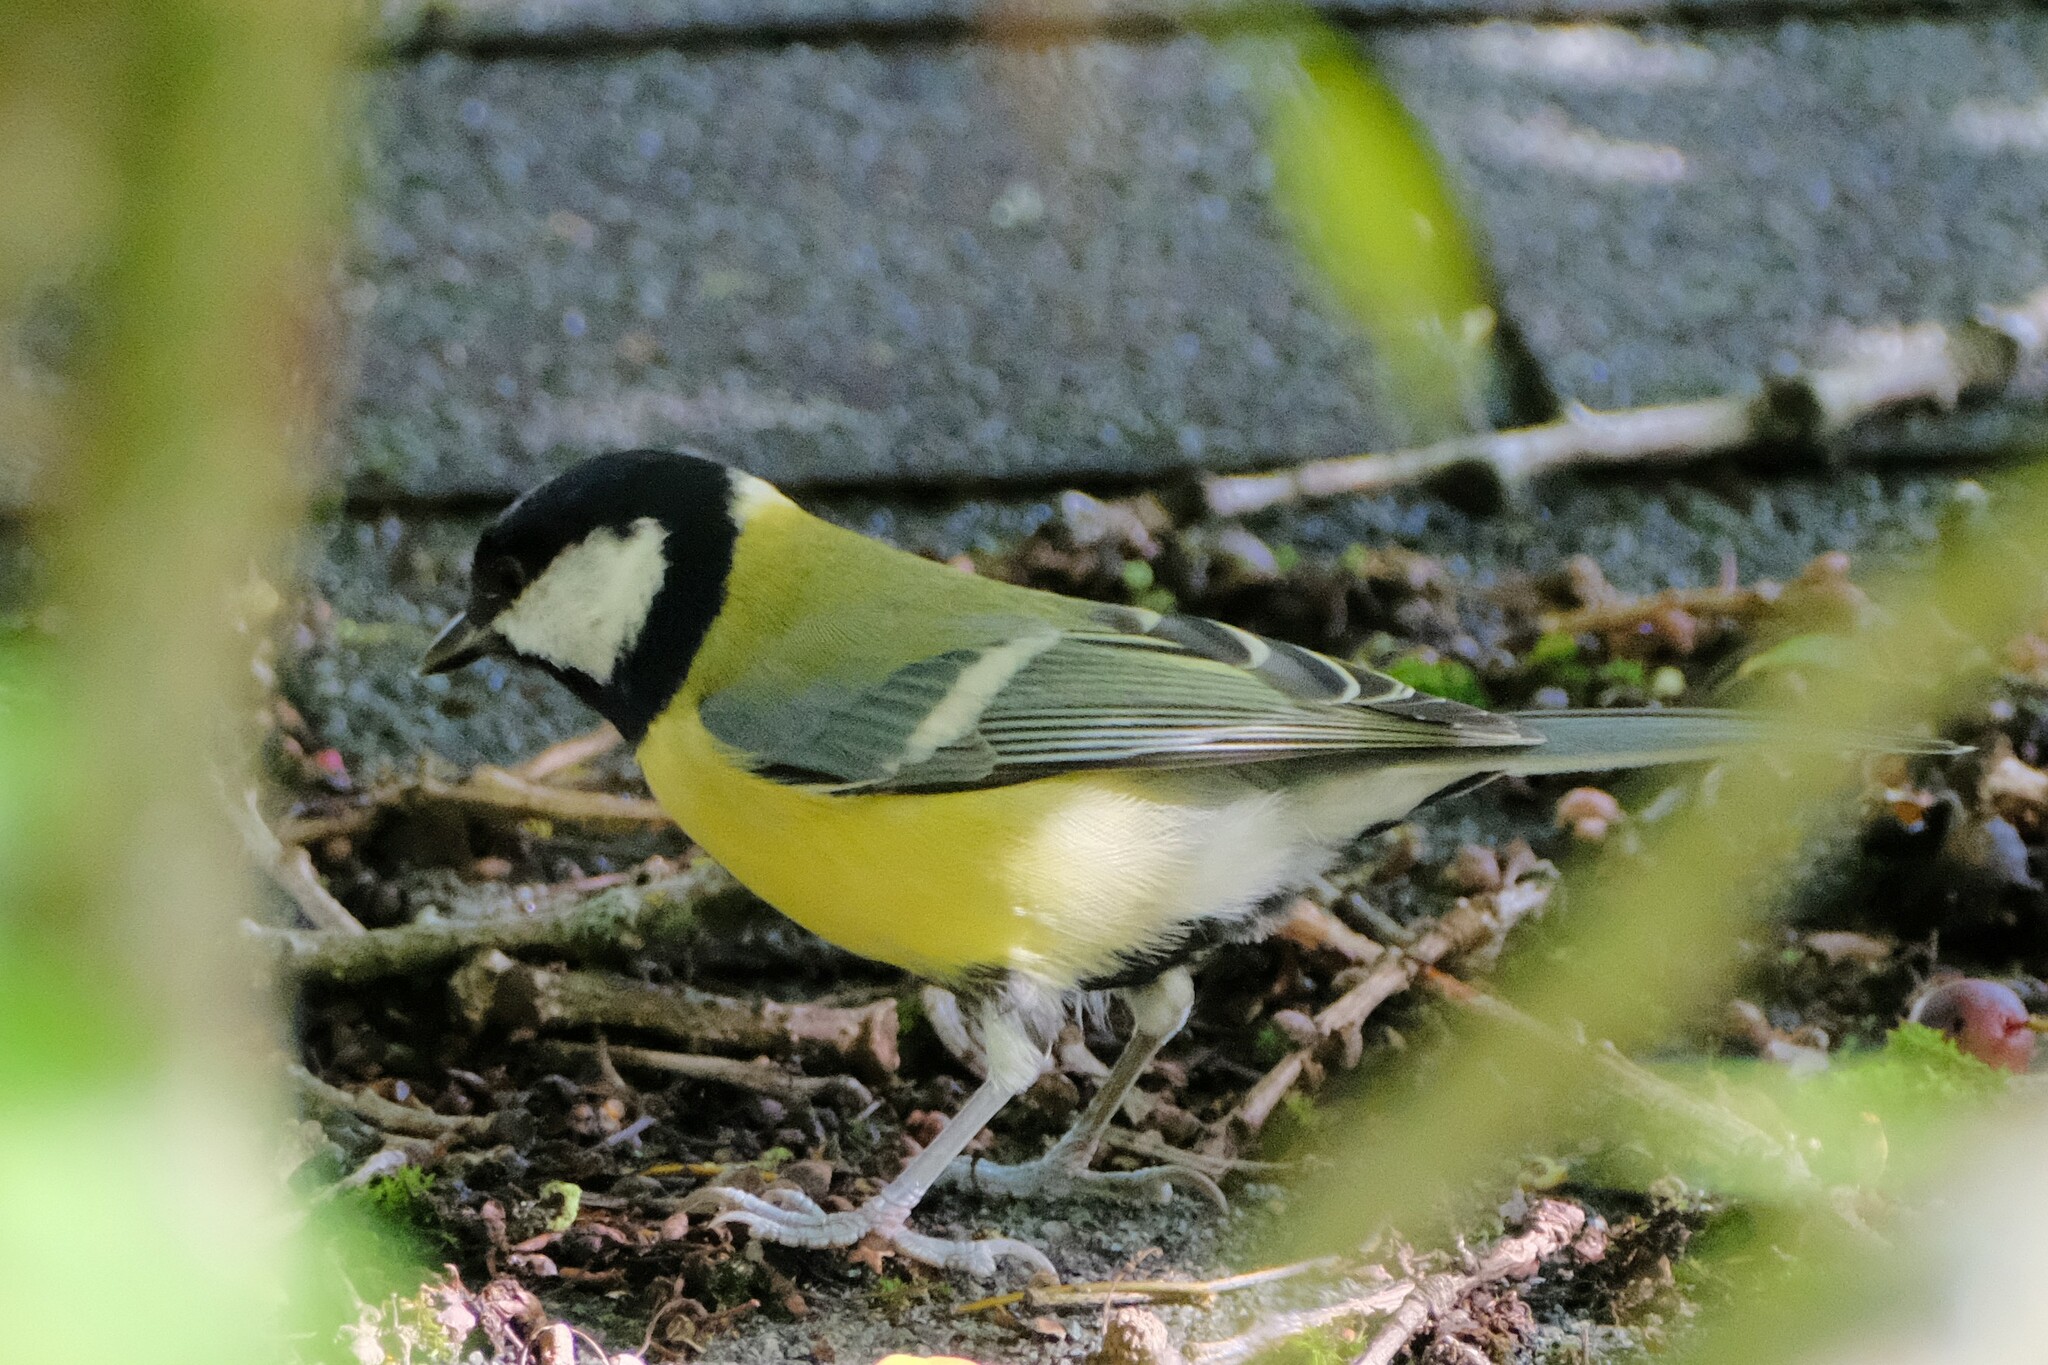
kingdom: Animalia
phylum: Chordata
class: Aves
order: Passeriformes
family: Paridae
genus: Parus
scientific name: Parus major
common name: Great tit
